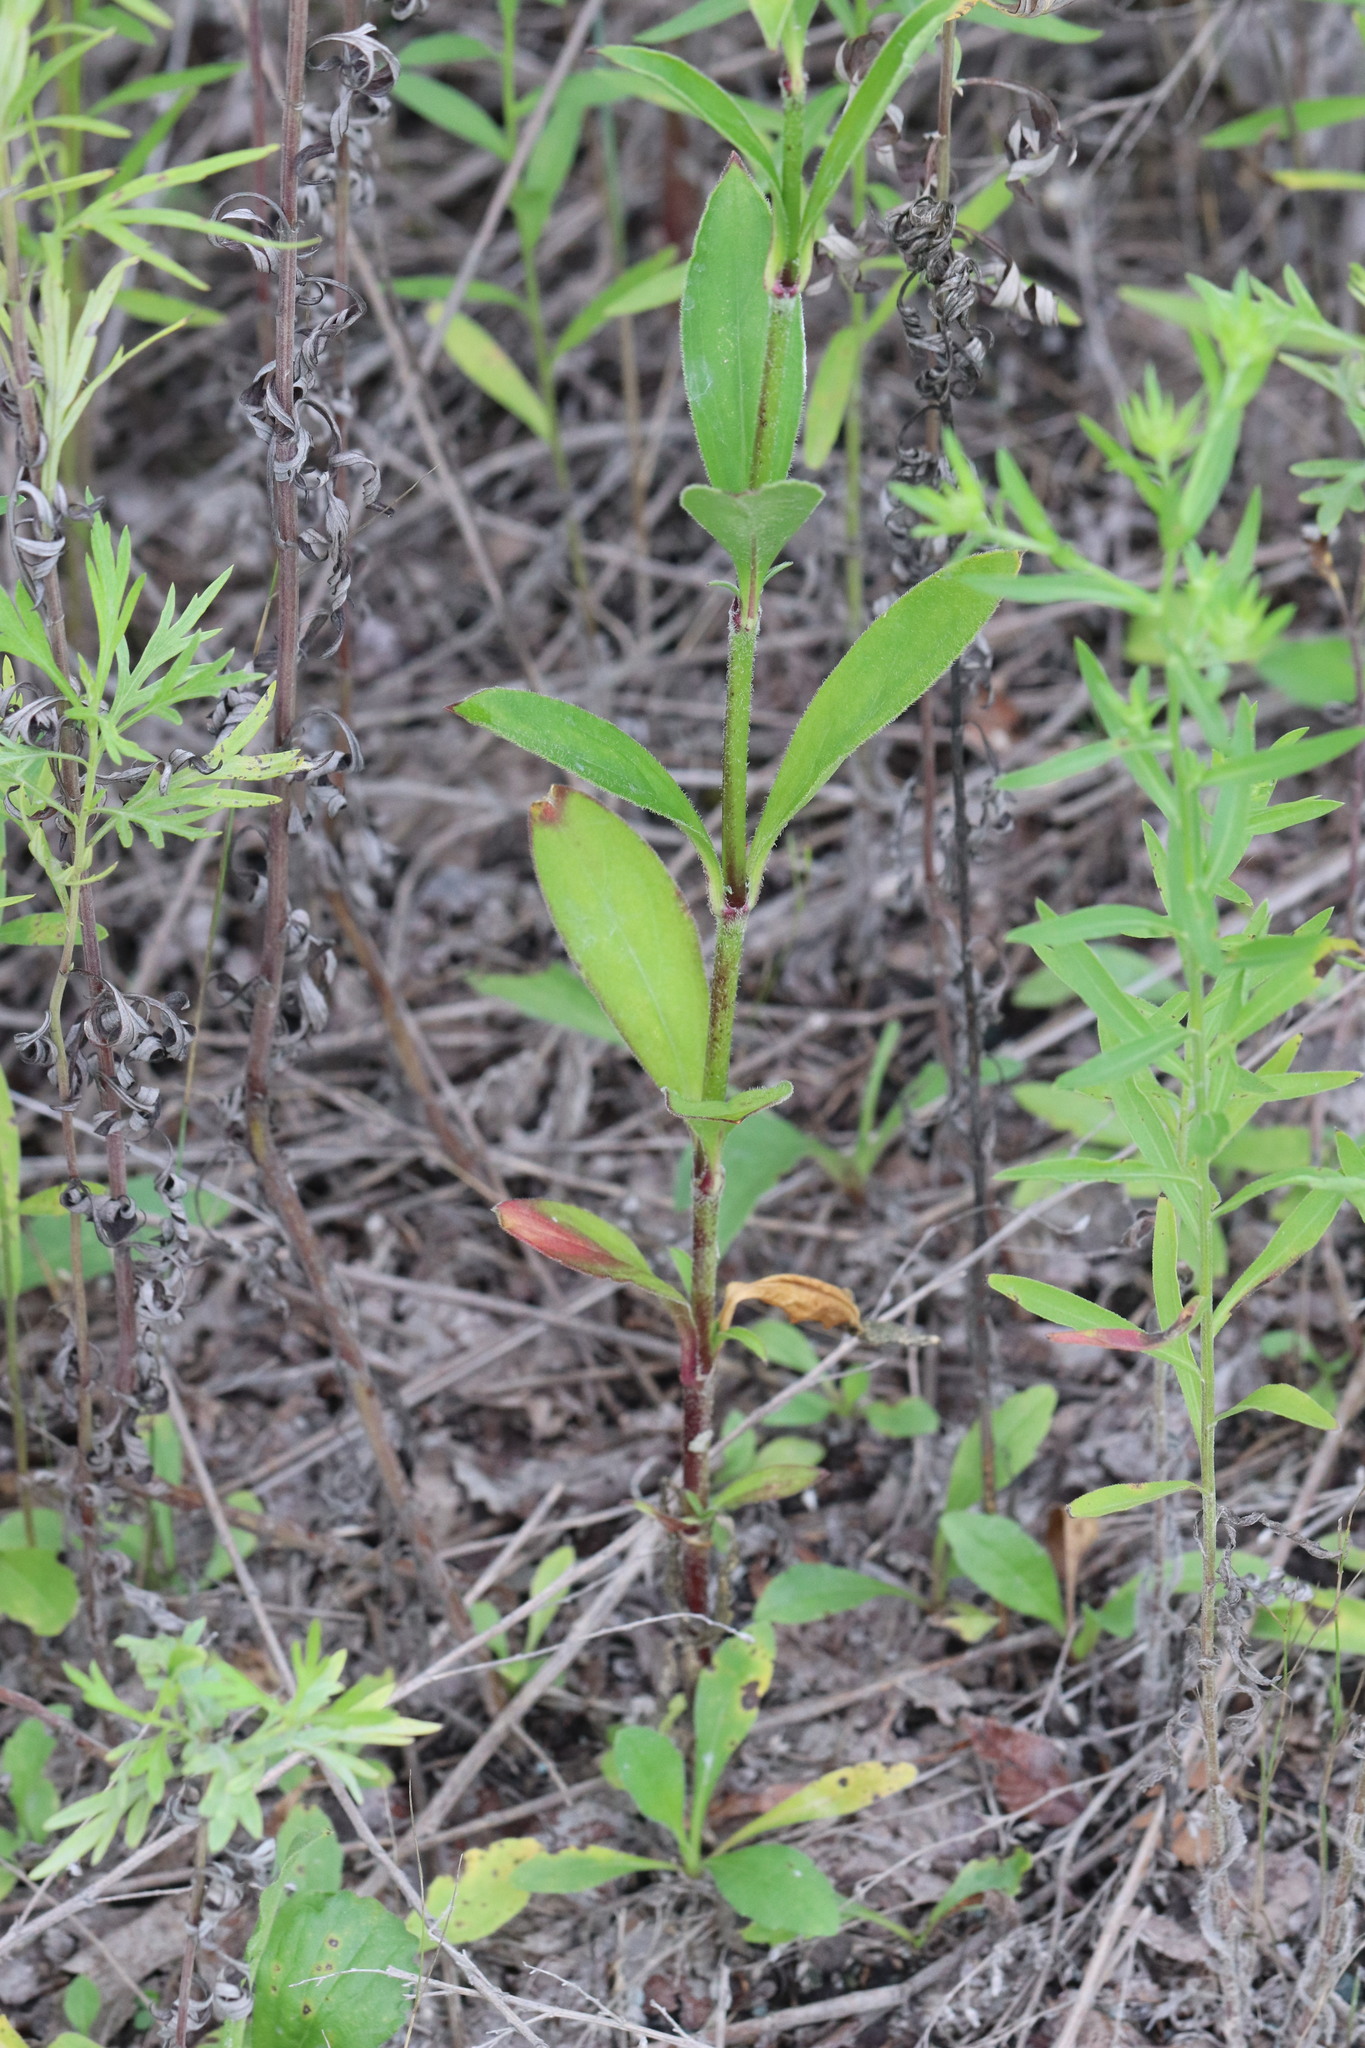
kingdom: Plantae
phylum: Tracheophyta
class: Magnoliopsida
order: Caryophyllales
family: Caryophyllaceae
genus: Silene
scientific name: Silene firma
